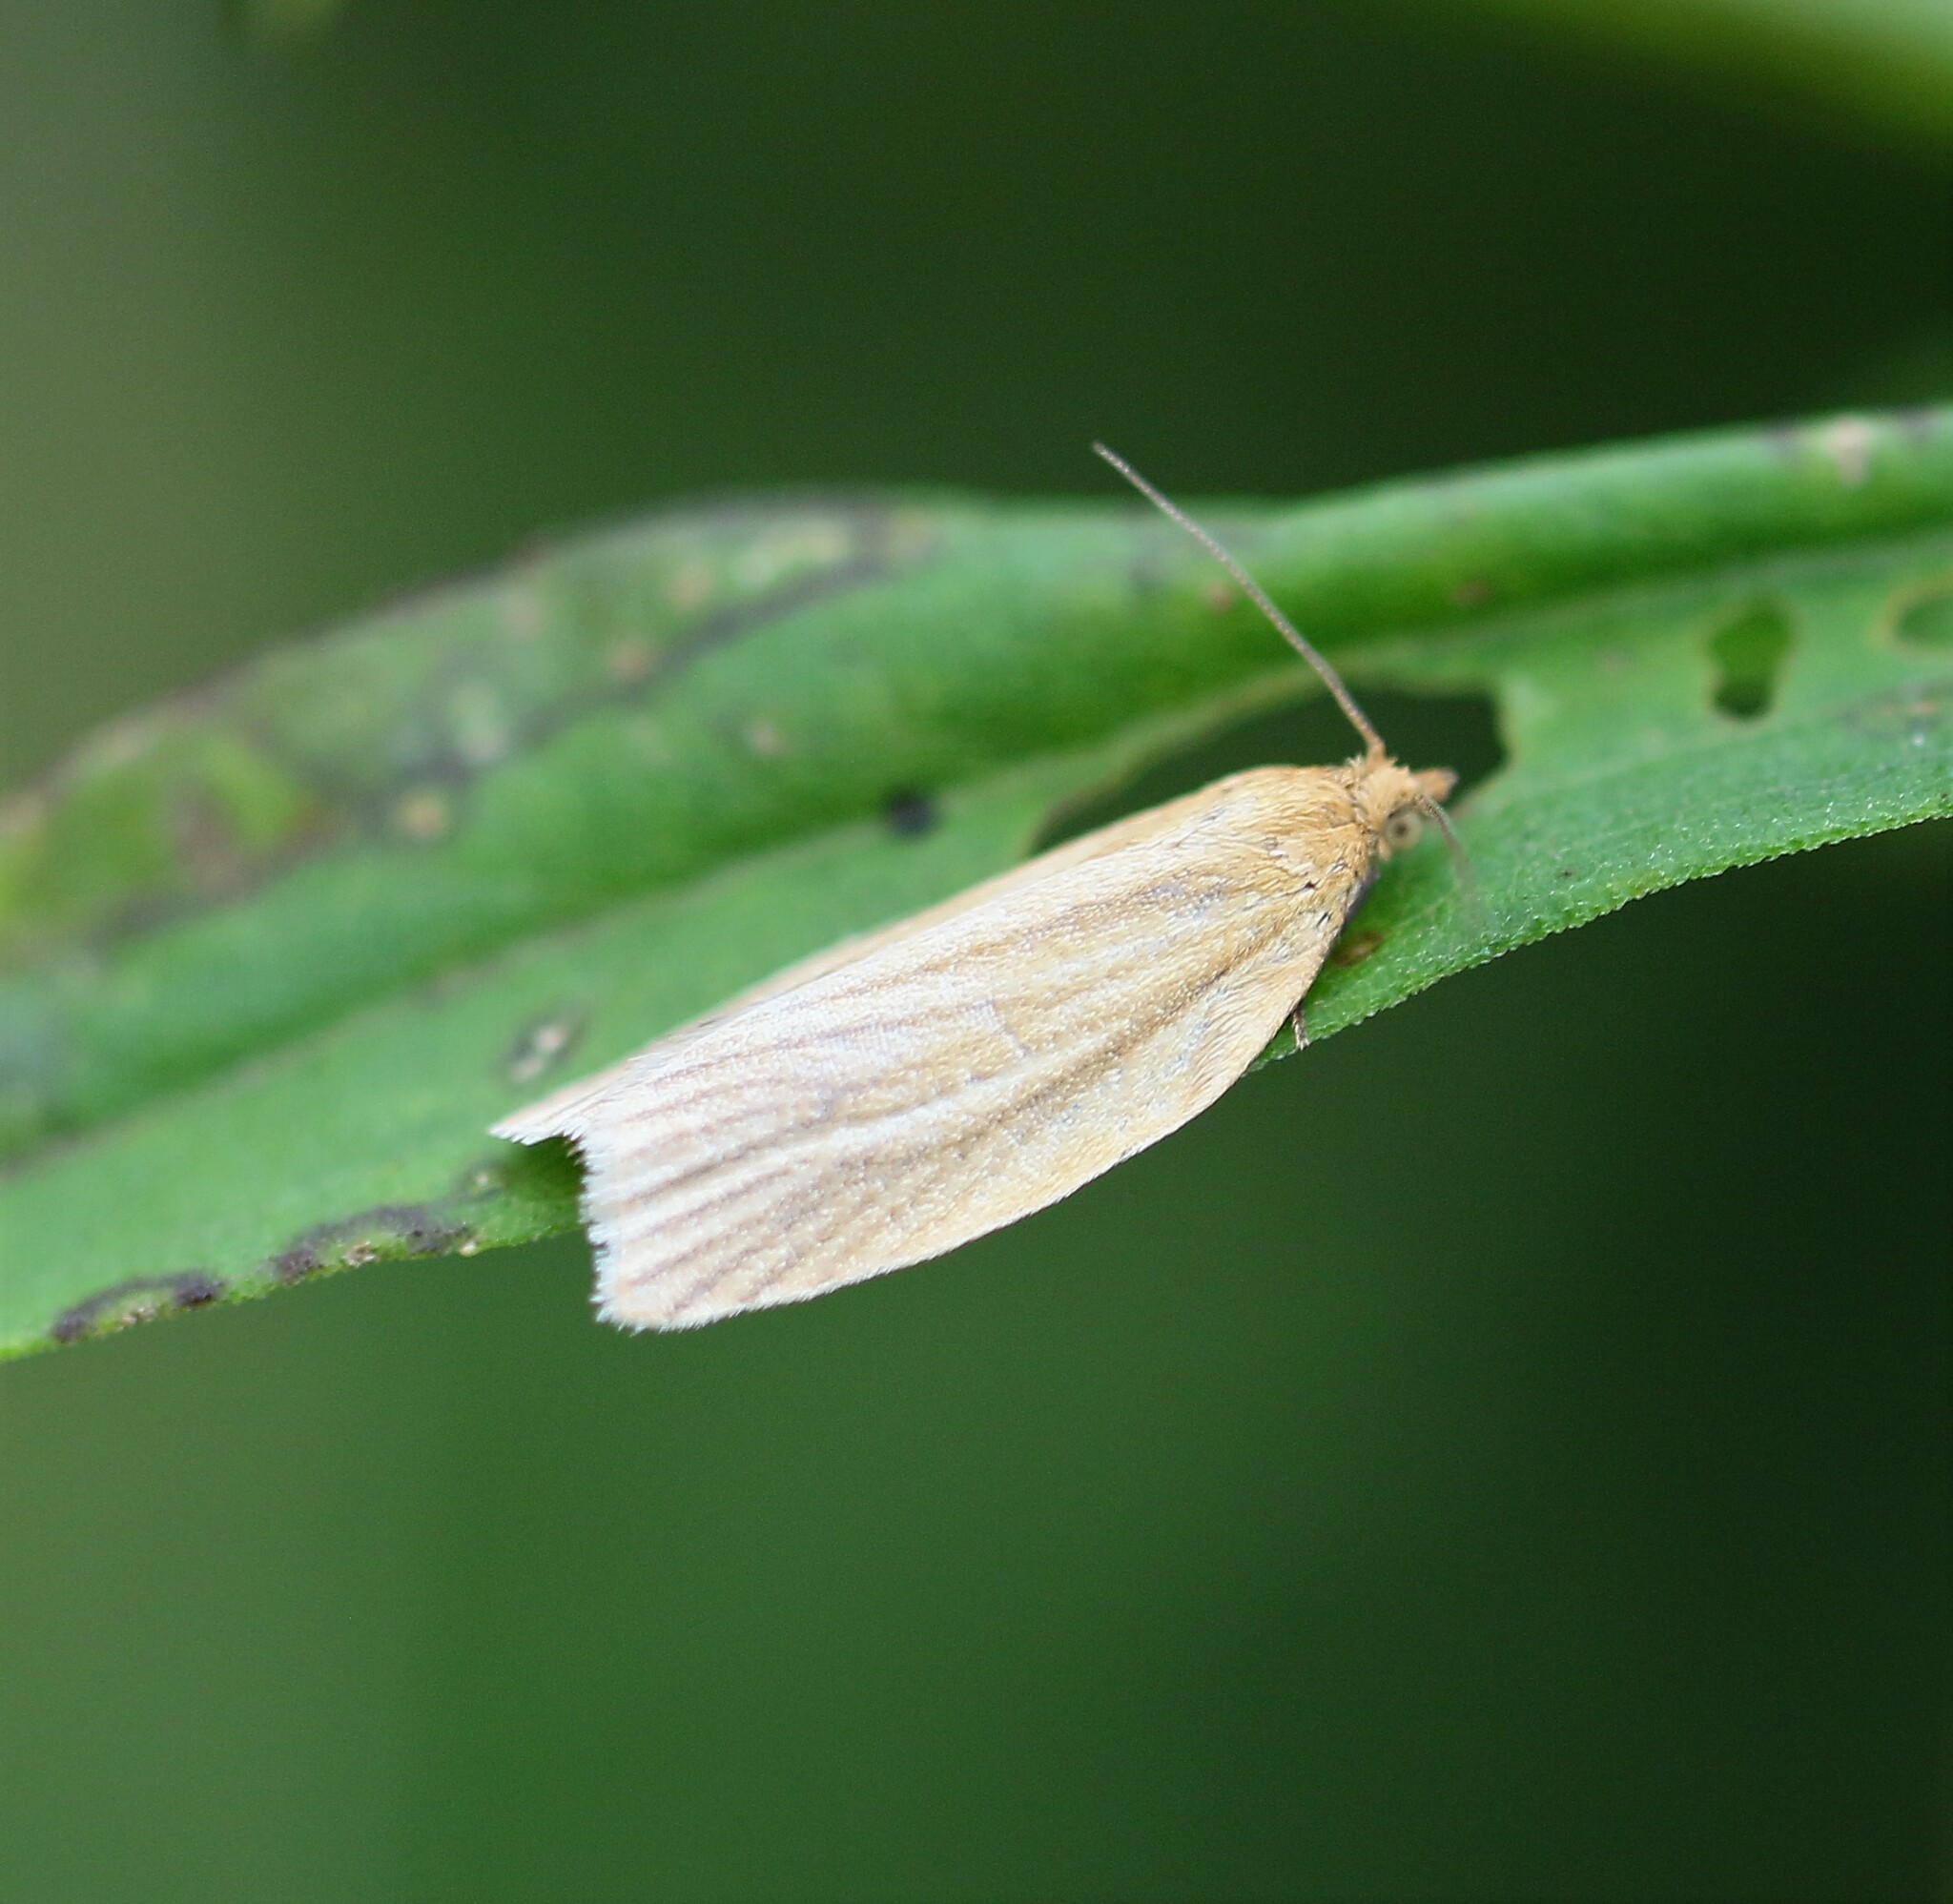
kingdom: Animalia
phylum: Arthropoda
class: Insecta
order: Lepidoptera
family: Tortricidae
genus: Clepsis
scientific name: Clepsis clemensiana
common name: Clemens' clepsis moth
